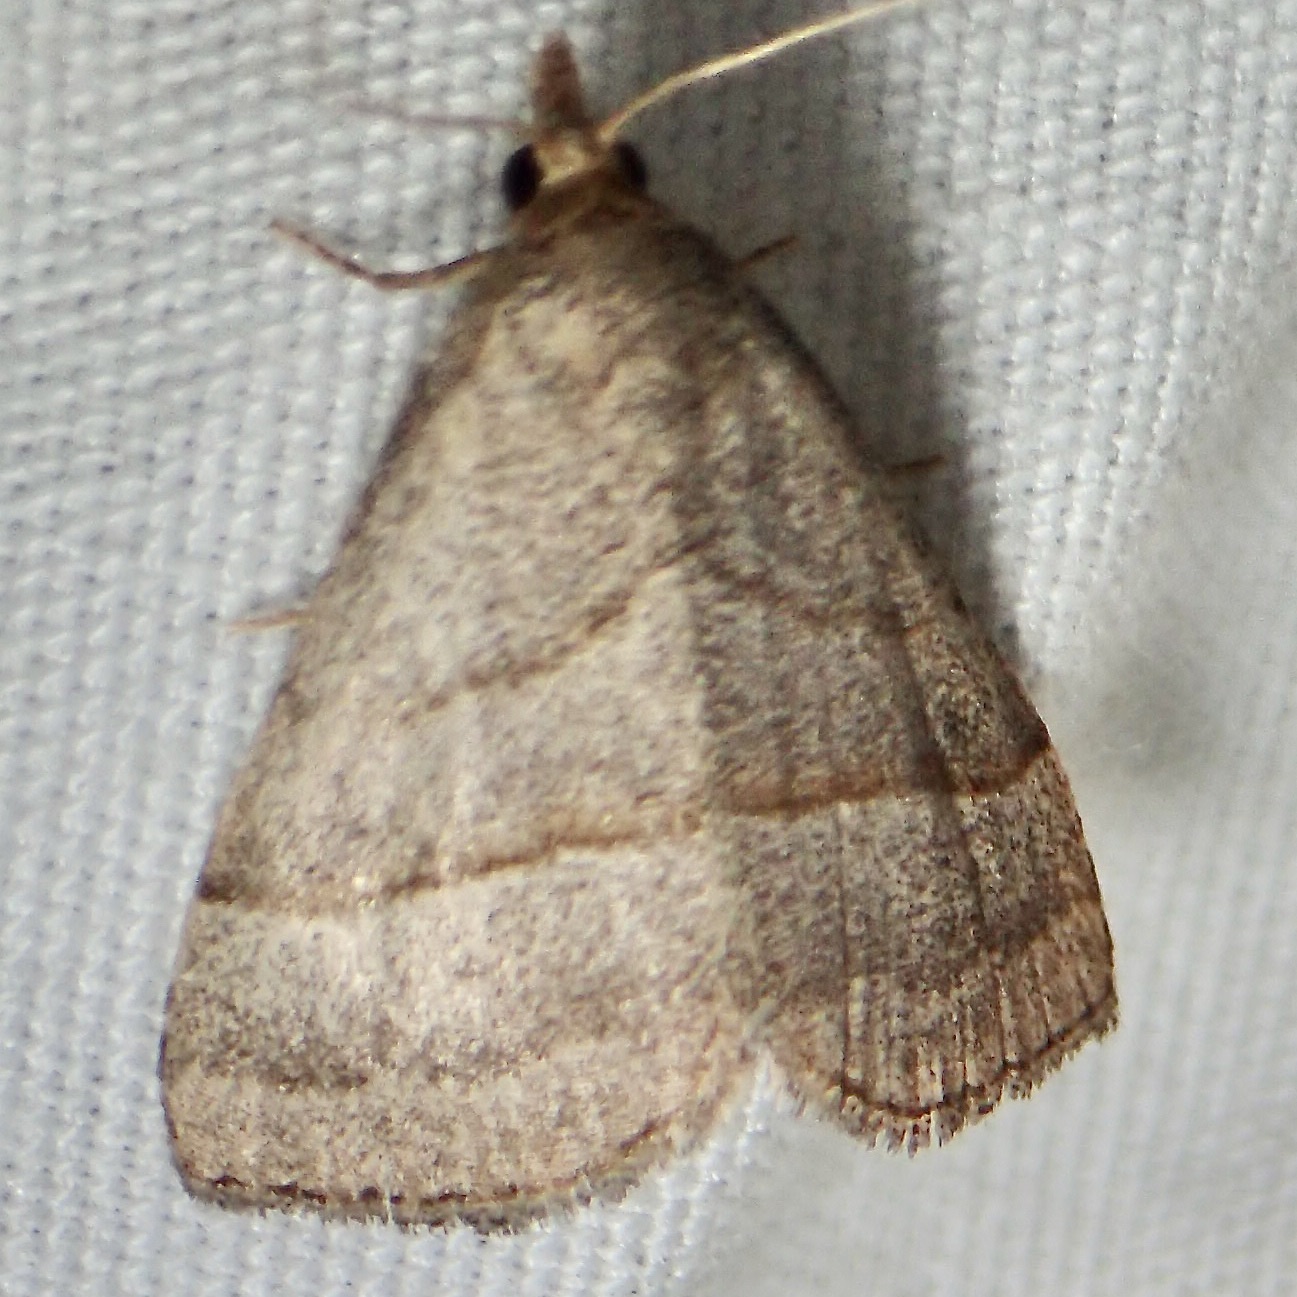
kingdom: Animalia
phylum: Arthropoda
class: Insecta
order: Lepidoptera
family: Erebidae
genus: Zelicodes
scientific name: Zelicodes linearis
